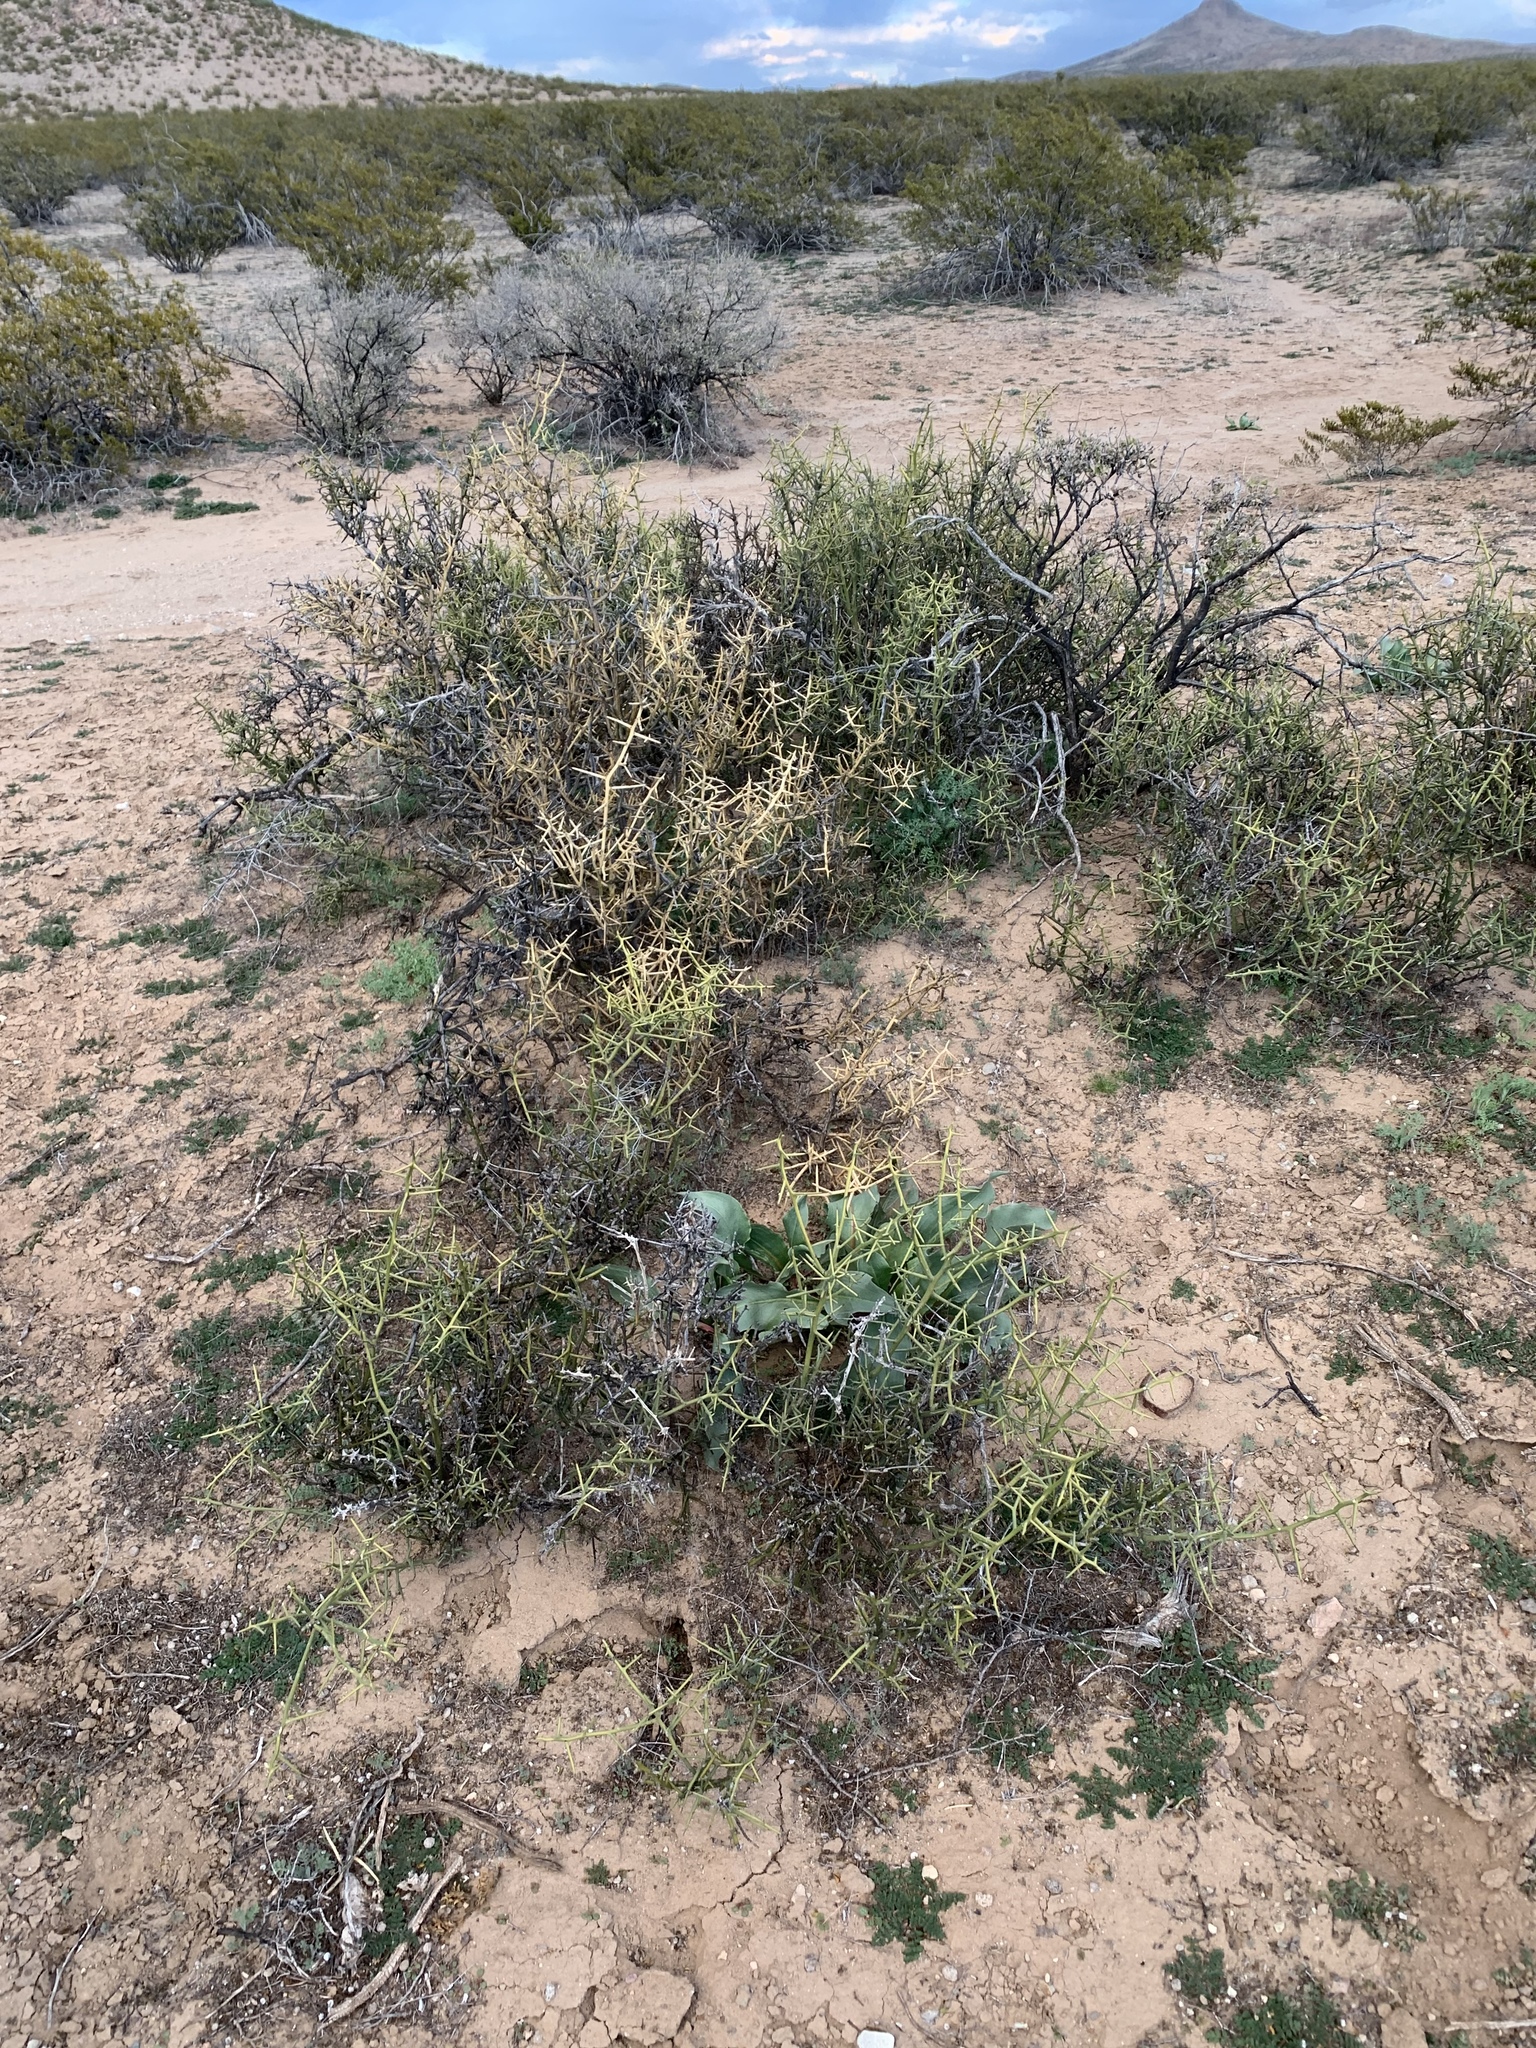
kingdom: Plantae
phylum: Tracheophyta
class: Magnoliopsida
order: Brassicales
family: Koeberliniaceae
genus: Koeberlinia
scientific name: Koeberlinia spinosa
